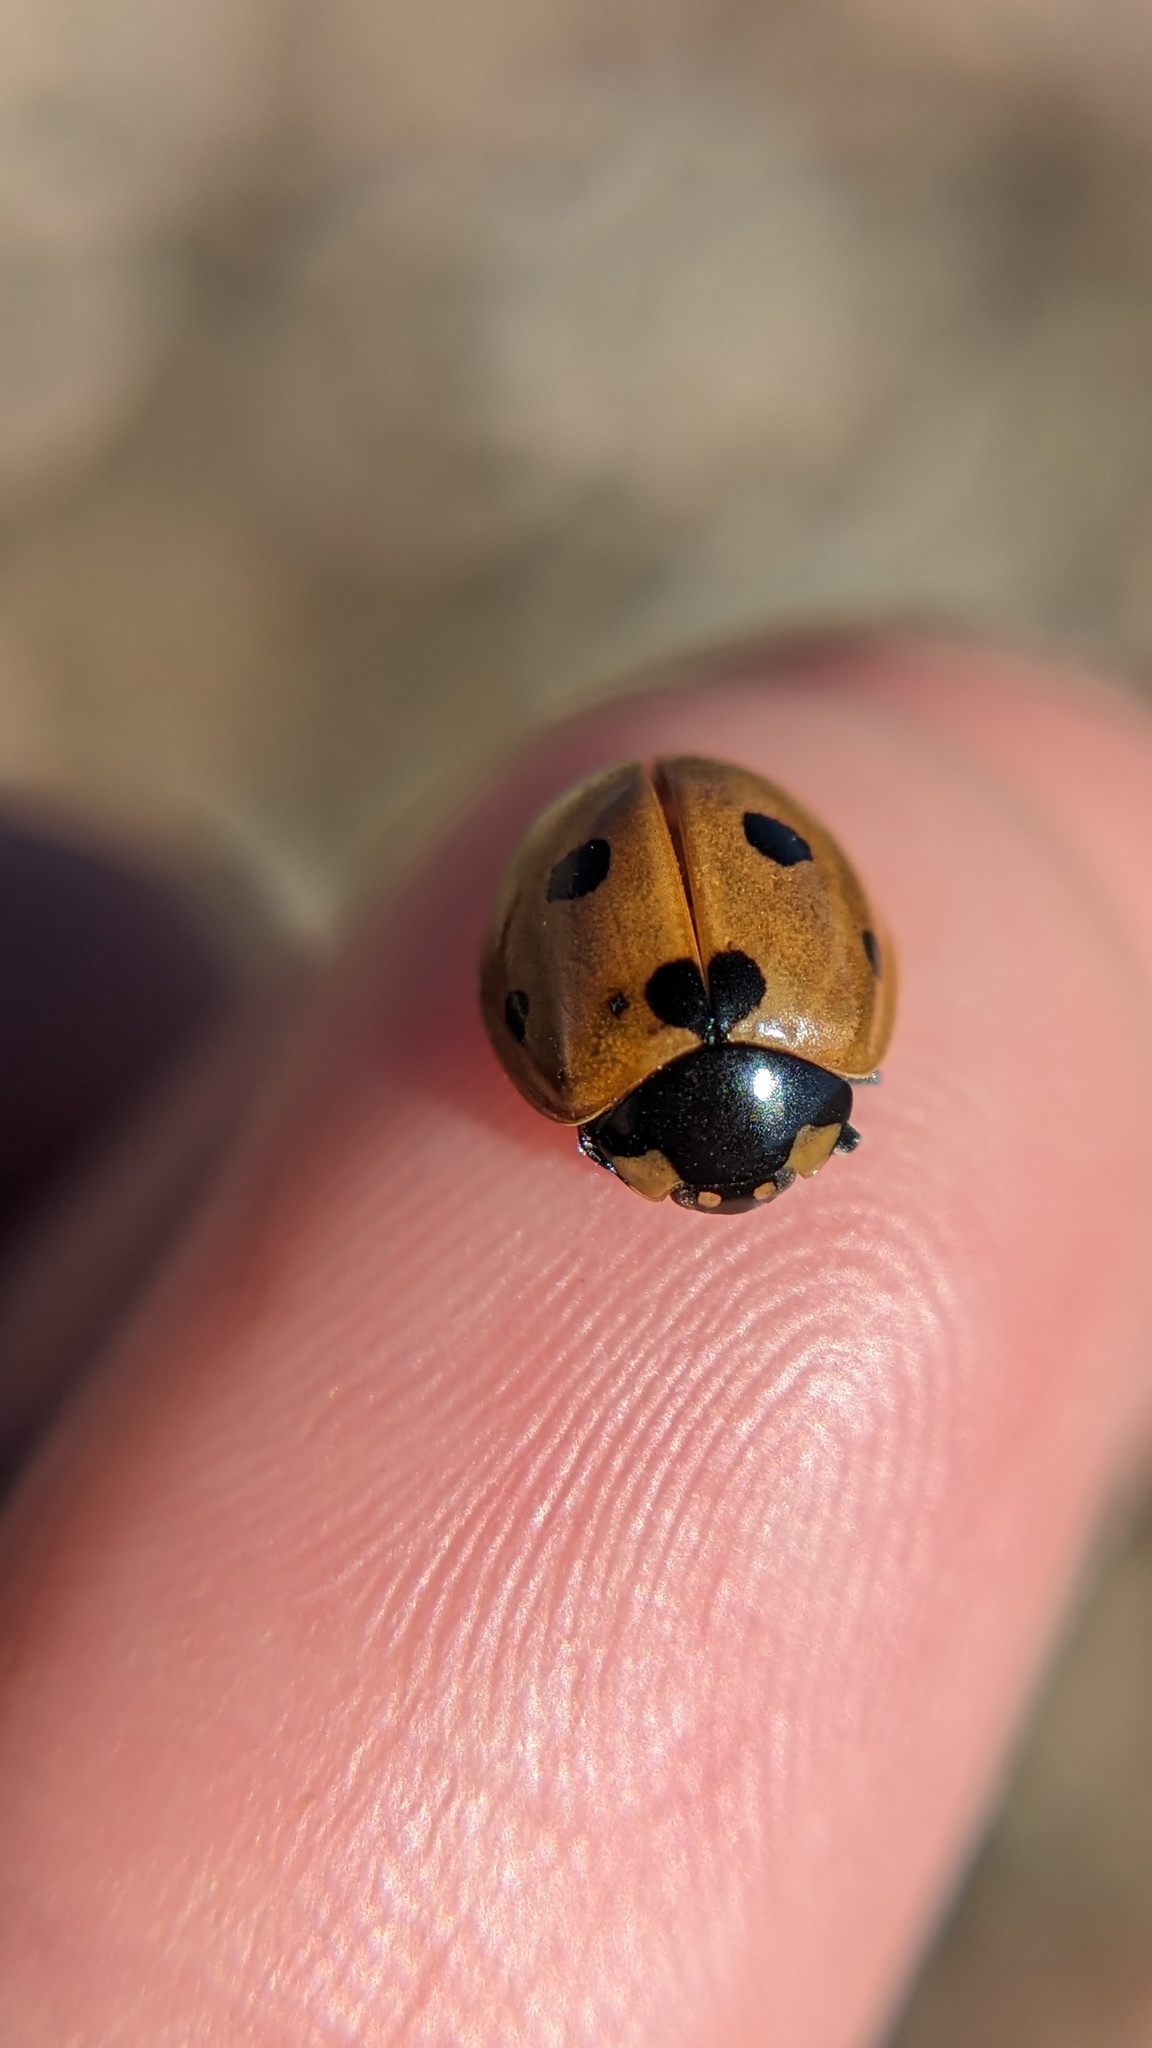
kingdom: Animalia
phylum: Arthropoda
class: Insecta
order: Coleoptera
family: Coccinellidae
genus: Coccinella
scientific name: Coccinella septempunctata
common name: Sevenspotted lady beetle
